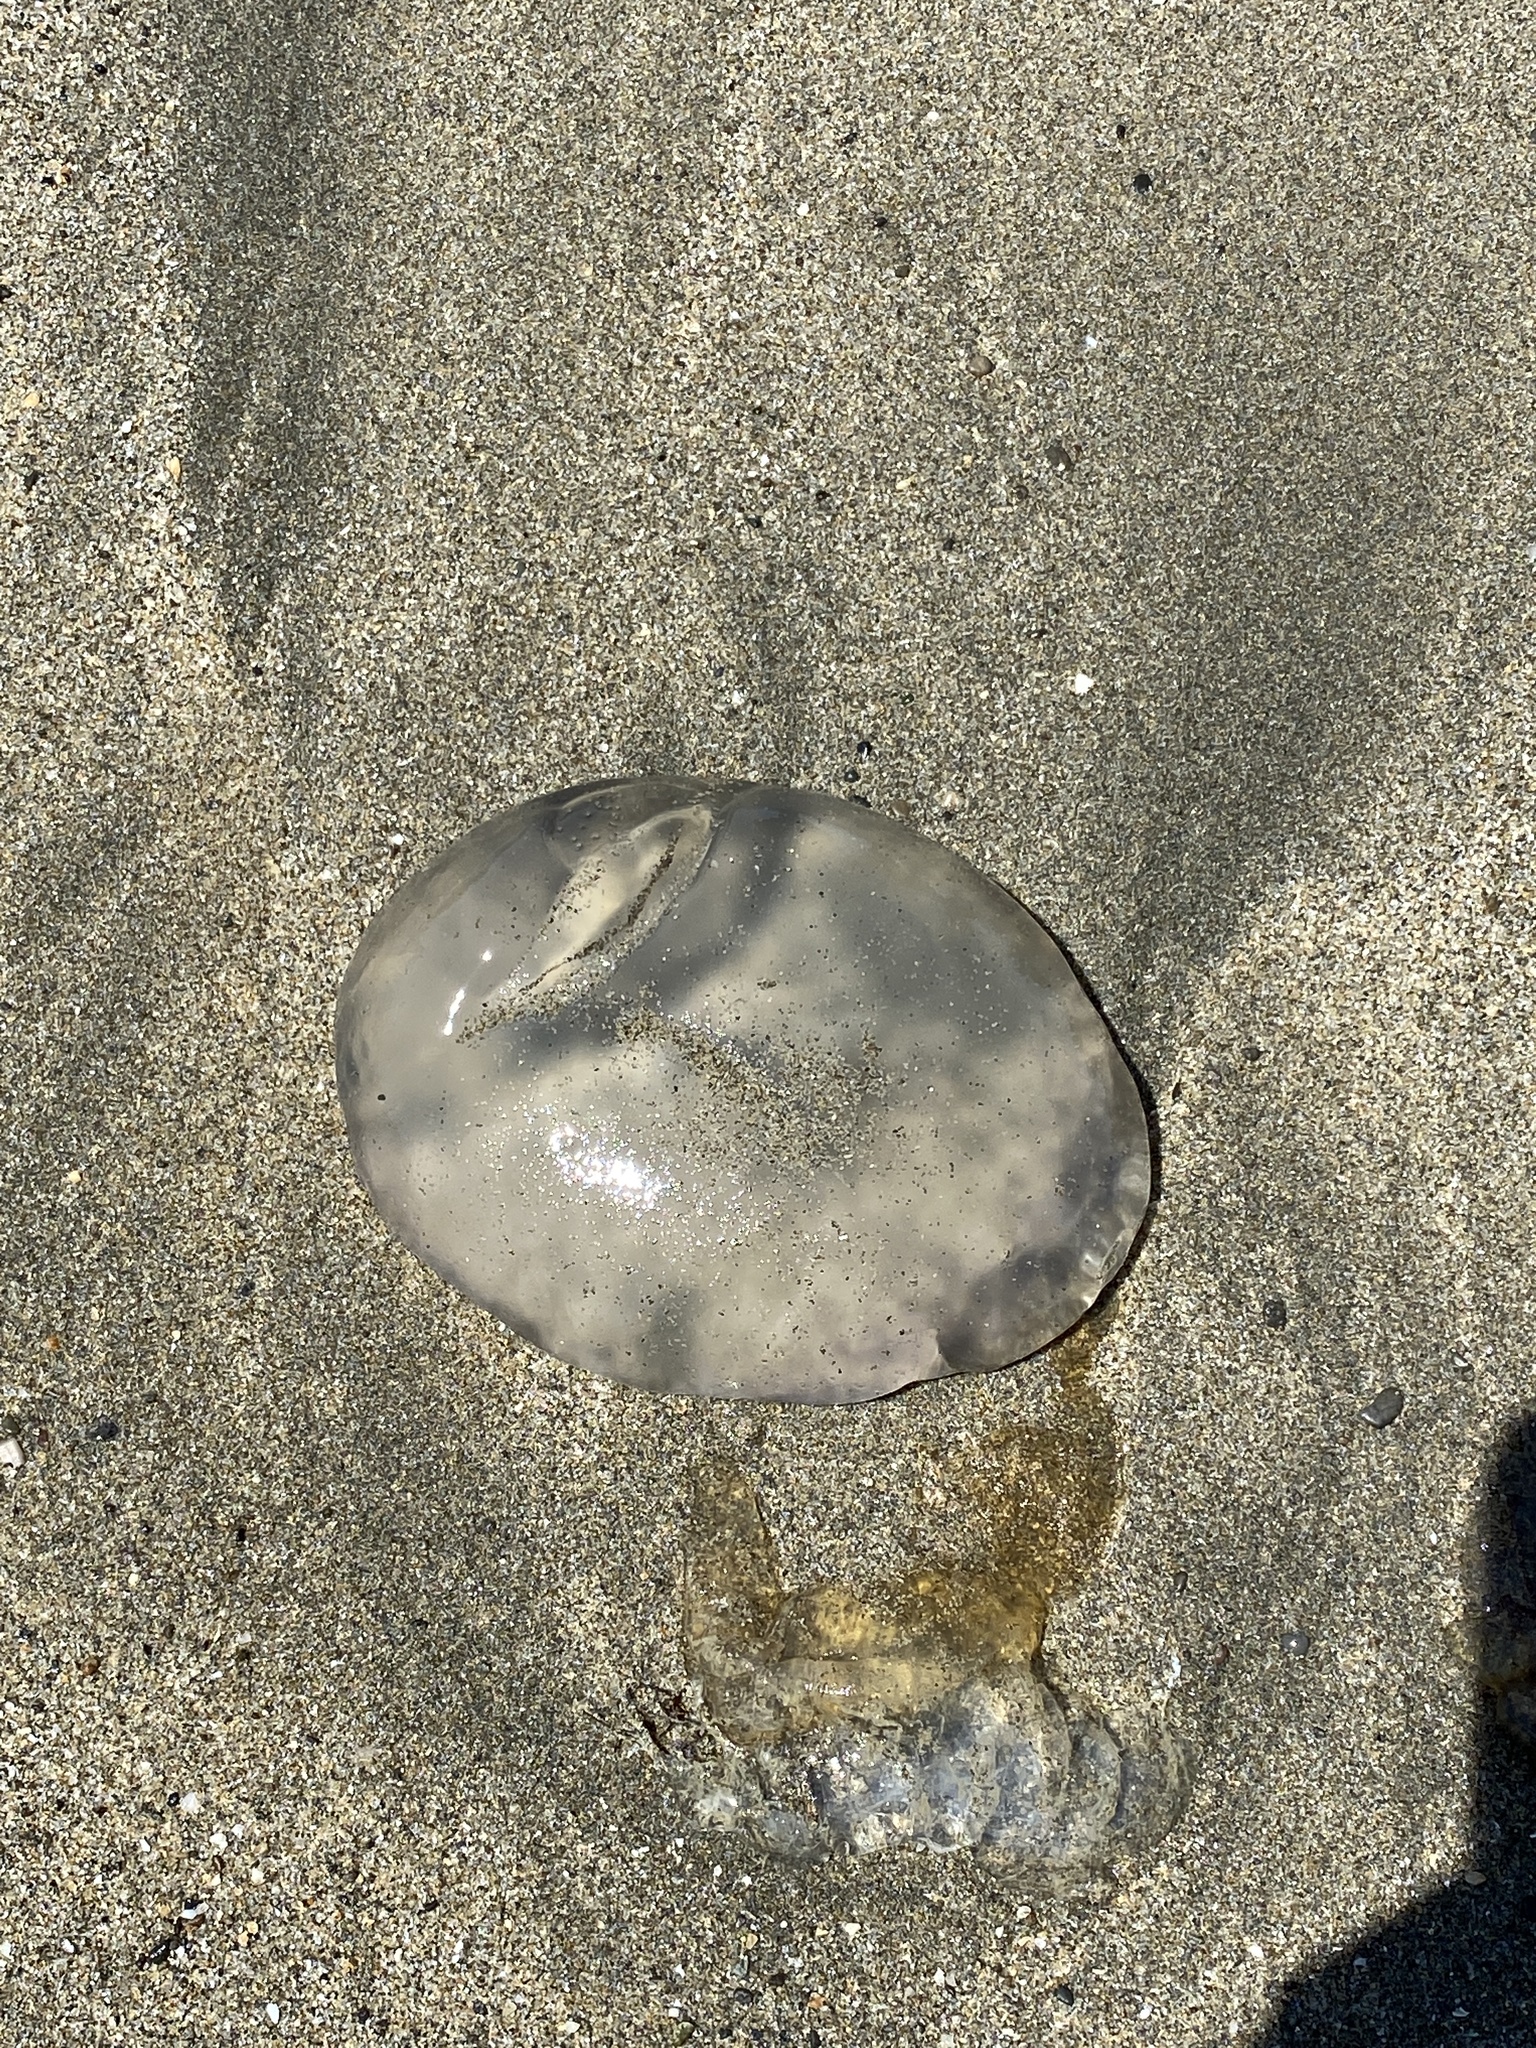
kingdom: Animalia
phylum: Cnidaria
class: Scyphozoa
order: Semaeostomeae
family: Ulmaridae
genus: Aurelia
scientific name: Aurelia labiata
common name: Pacific moon jelly
